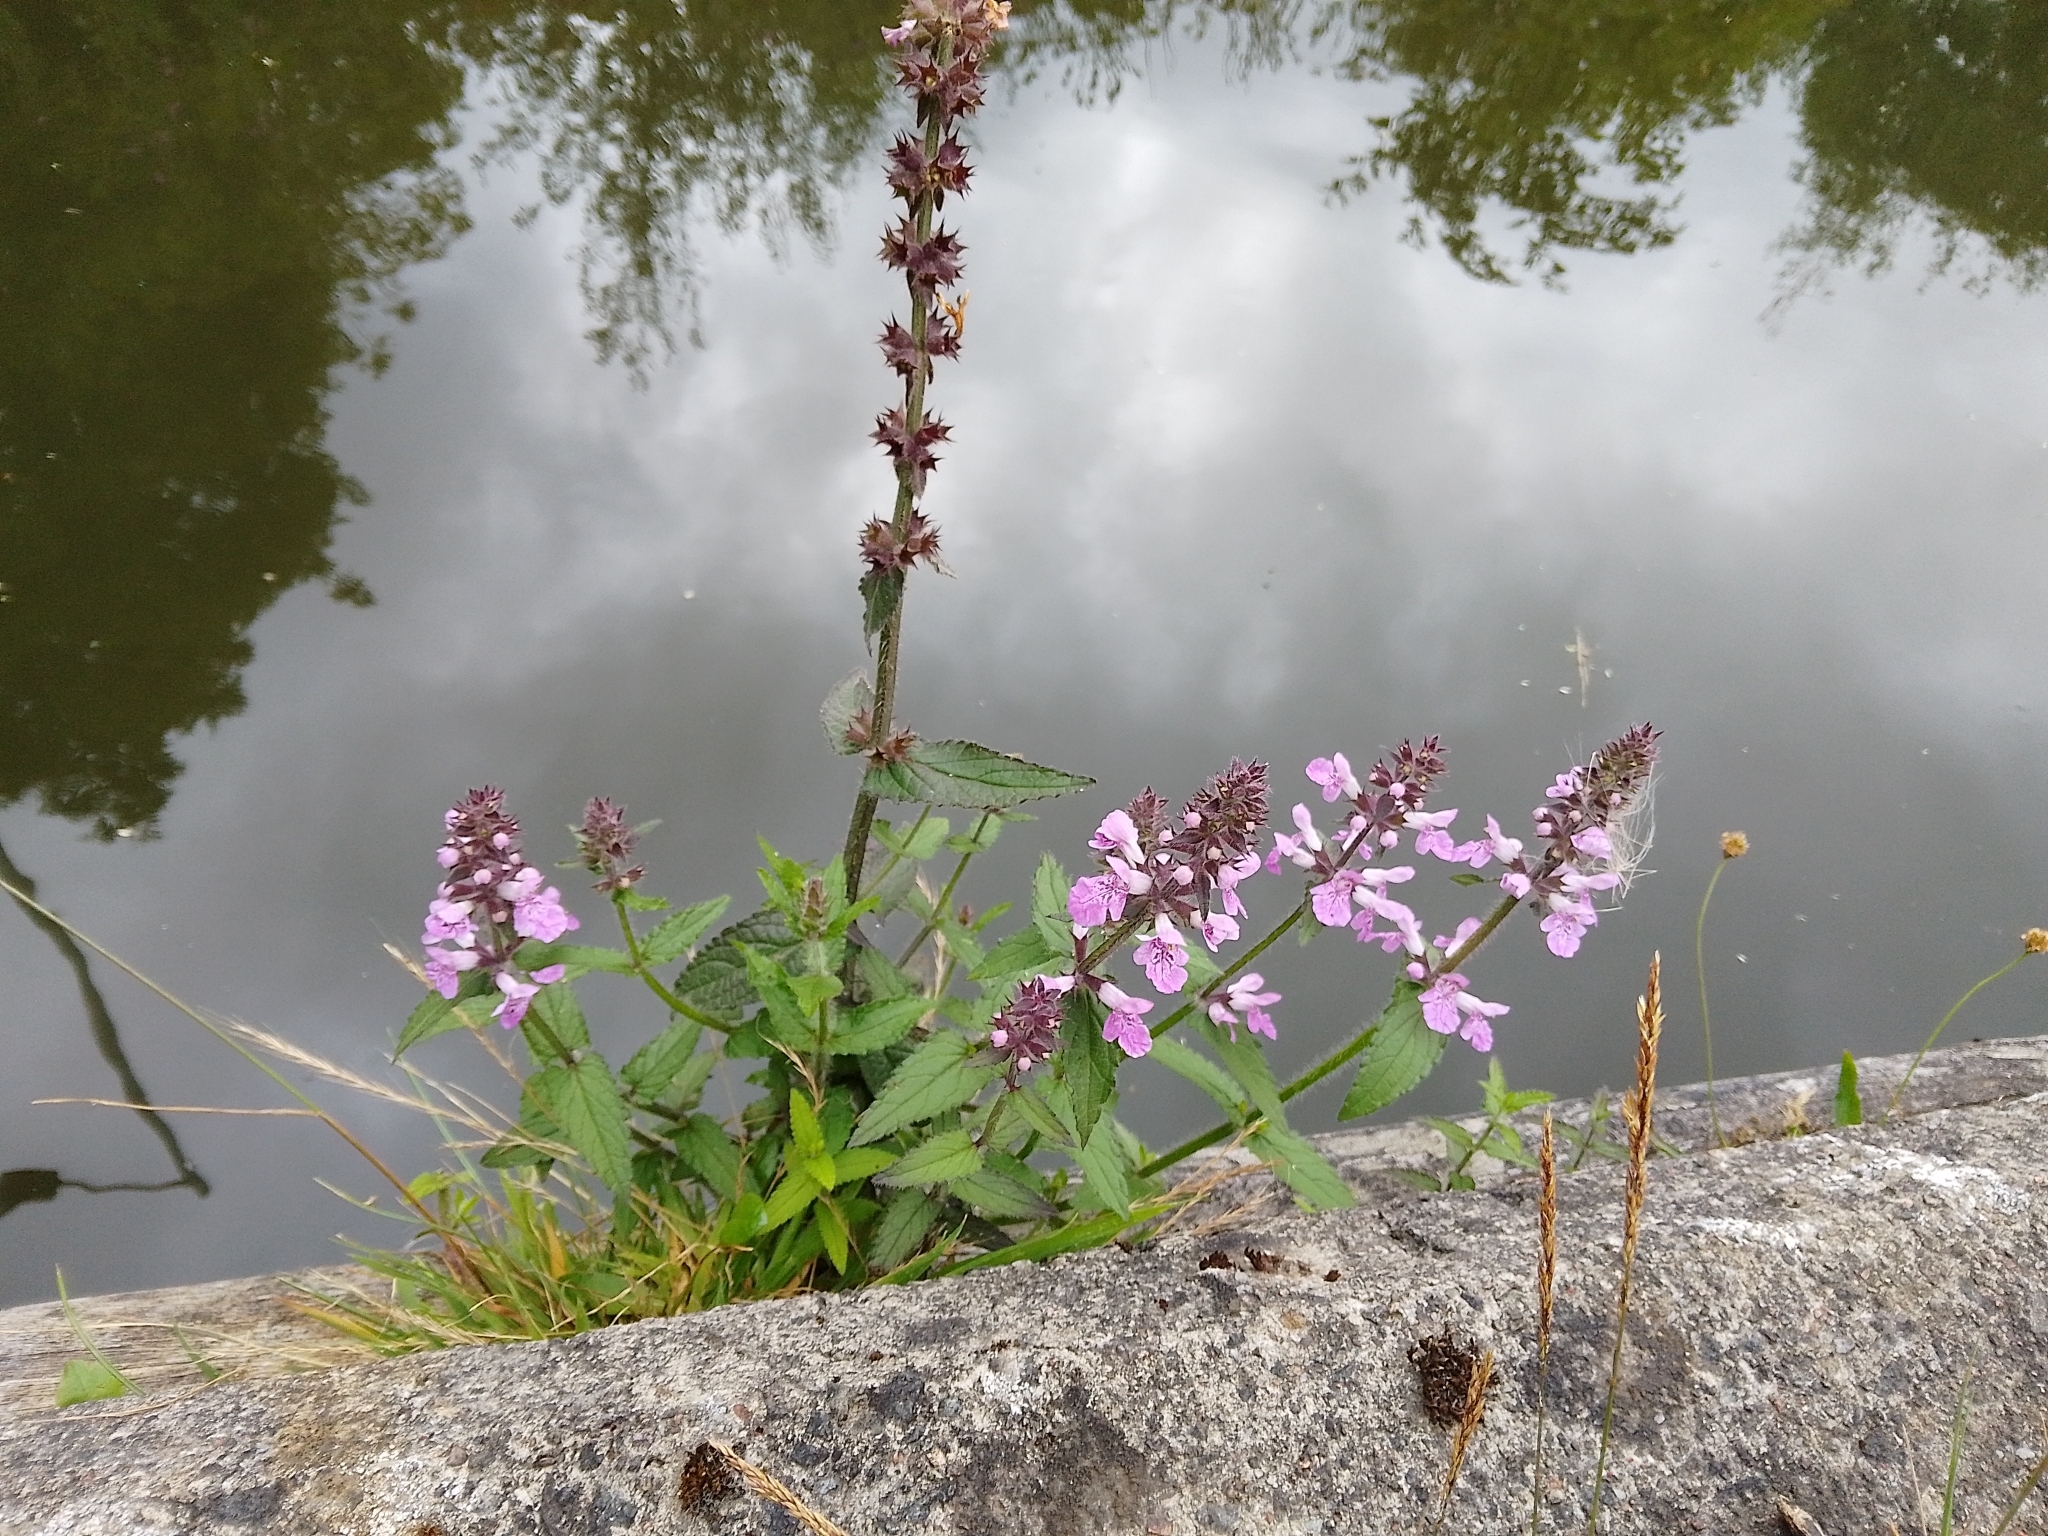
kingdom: Plantae
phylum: Tracheophyta
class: Magnoliopsida
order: Lamiales
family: Lamiaceae
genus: Stachys
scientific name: Stachys palustris
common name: Marsh woundwort
